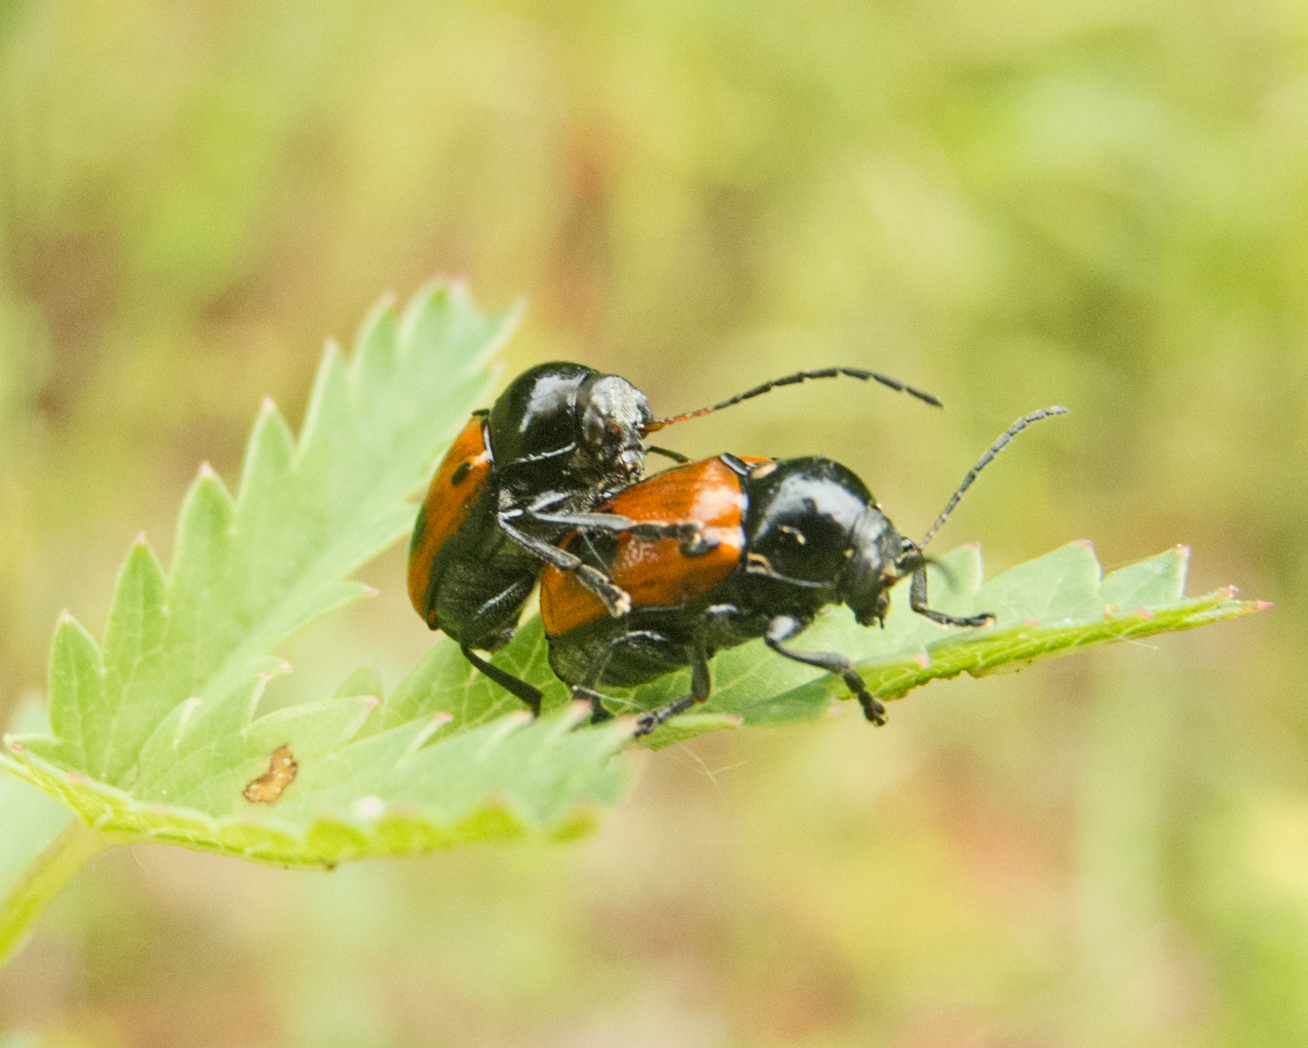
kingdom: Animalia
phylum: Arthropoda
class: Insecta
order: Coleoptera
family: Chrysomelidae
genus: Chiridopsis
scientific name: Chiridopsis bipunctata
